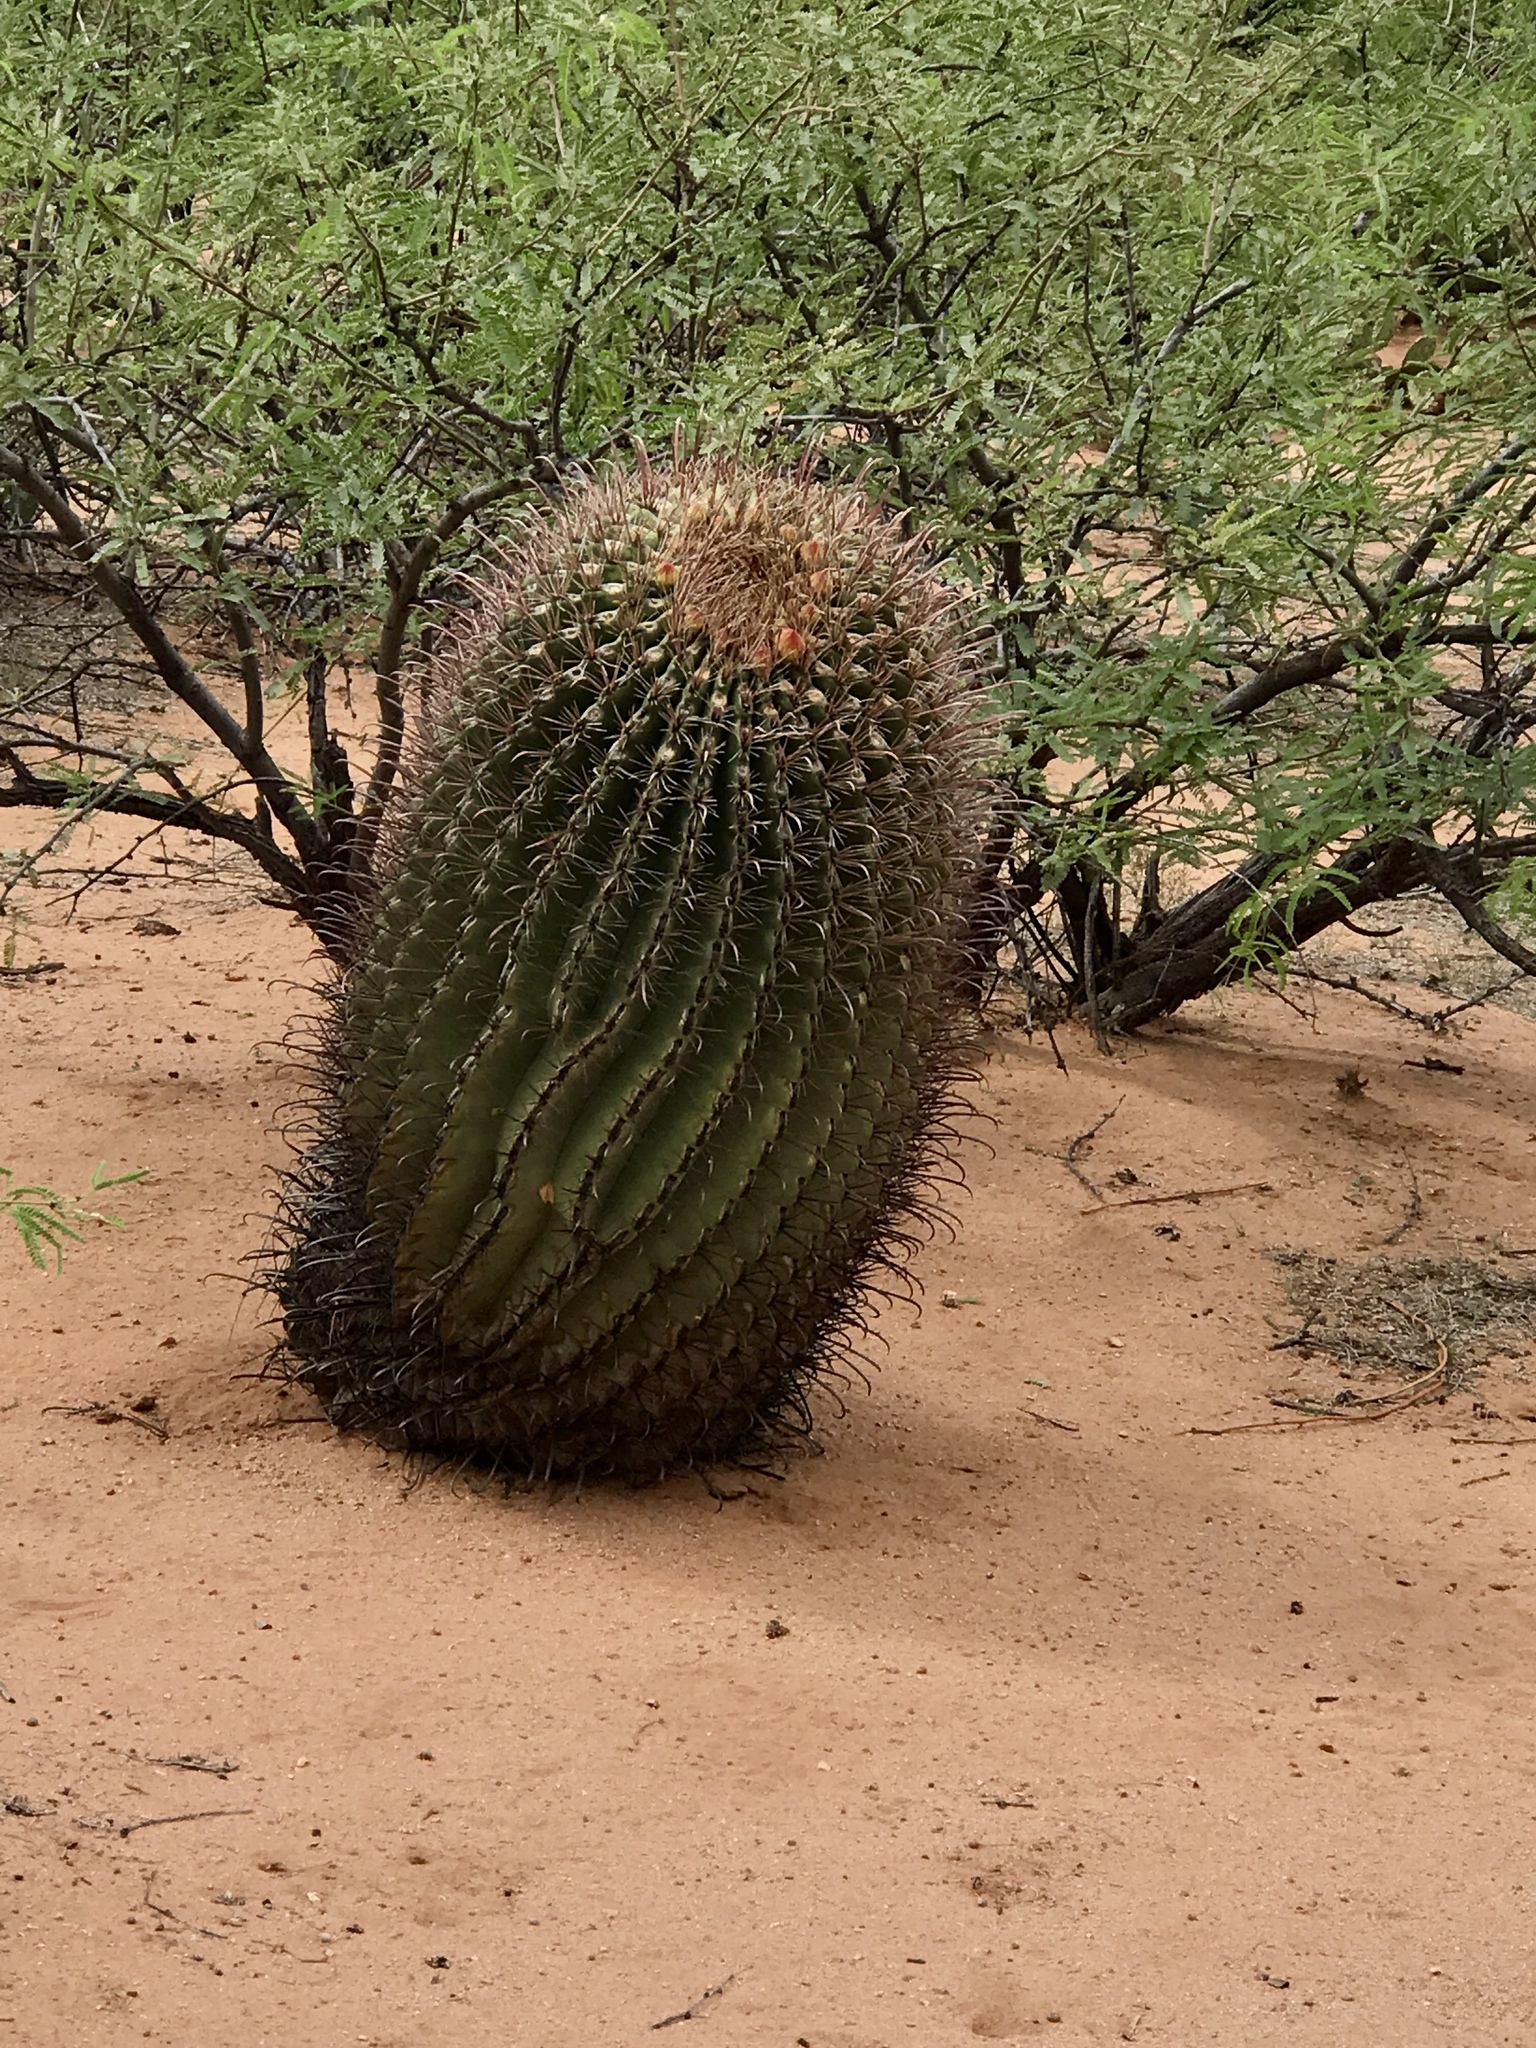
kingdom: Plantae
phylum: Tracheophyta
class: Magnoliopsida
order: Caryophyllales
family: Cactaceae
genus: Ferocactus
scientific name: Ferocactus wislizeni
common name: Candy barrel cactus
